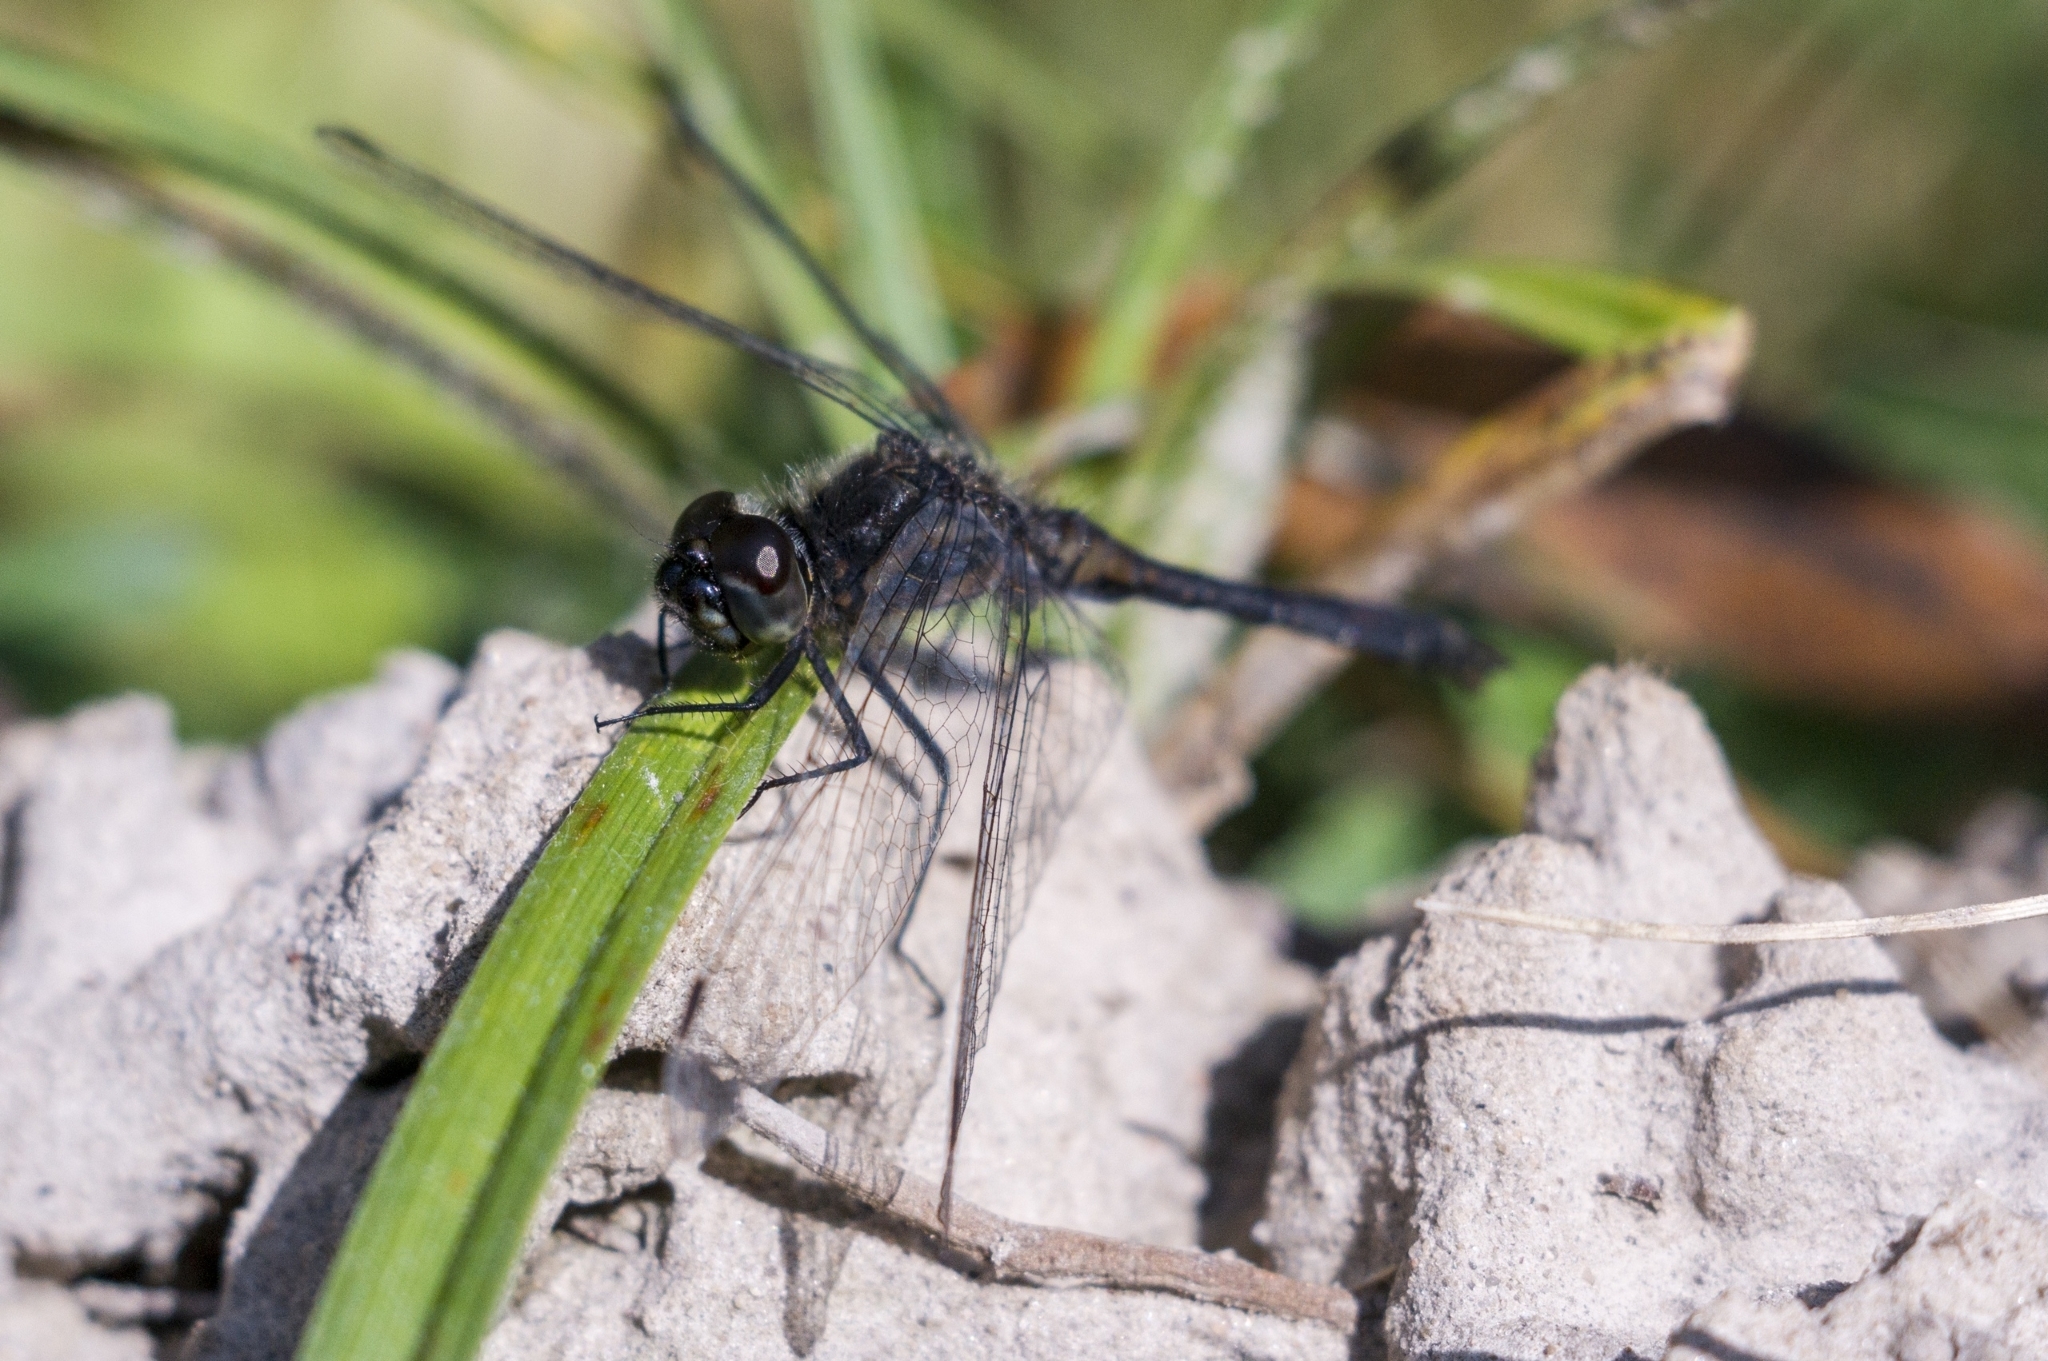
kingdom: Animalia
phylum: Arthropoda
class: Insecta
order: Odonata
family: Libellulidae
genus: Sympetrum
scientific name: Sympetrum danae
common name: Black darter
